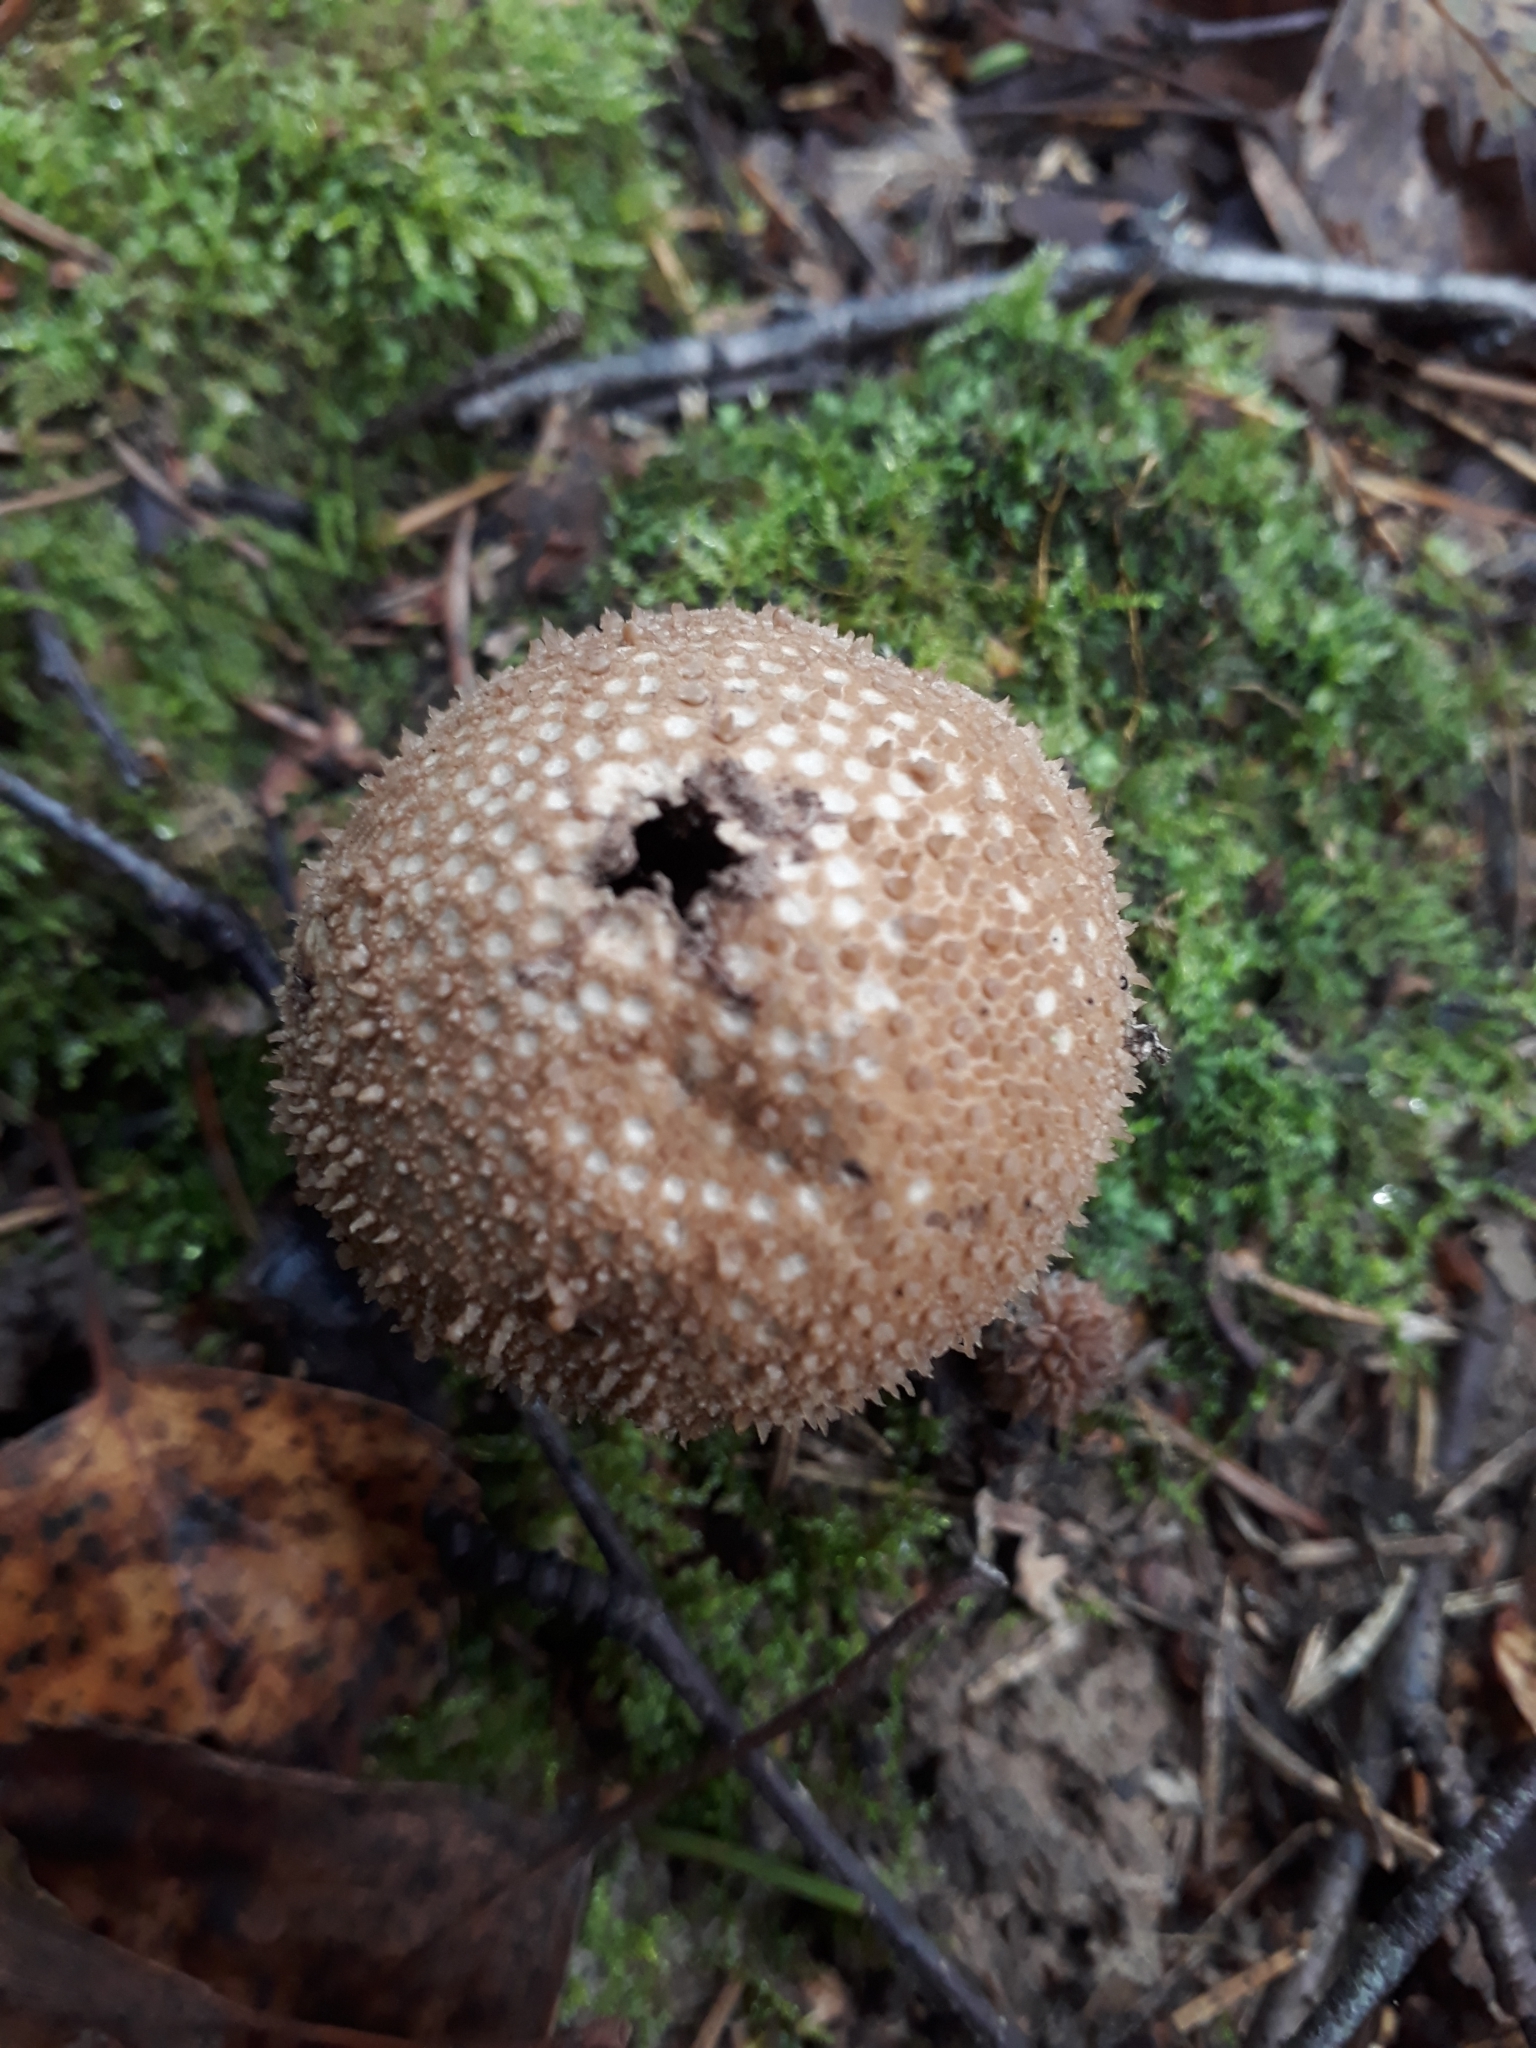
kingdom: Fungi
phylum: Basidiomycota
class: Agaricomycetes
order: Agaricales
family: Lycoperdaceae
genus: Lycoperdon
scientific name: Lycoperdon perlatum
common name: Common puffball
